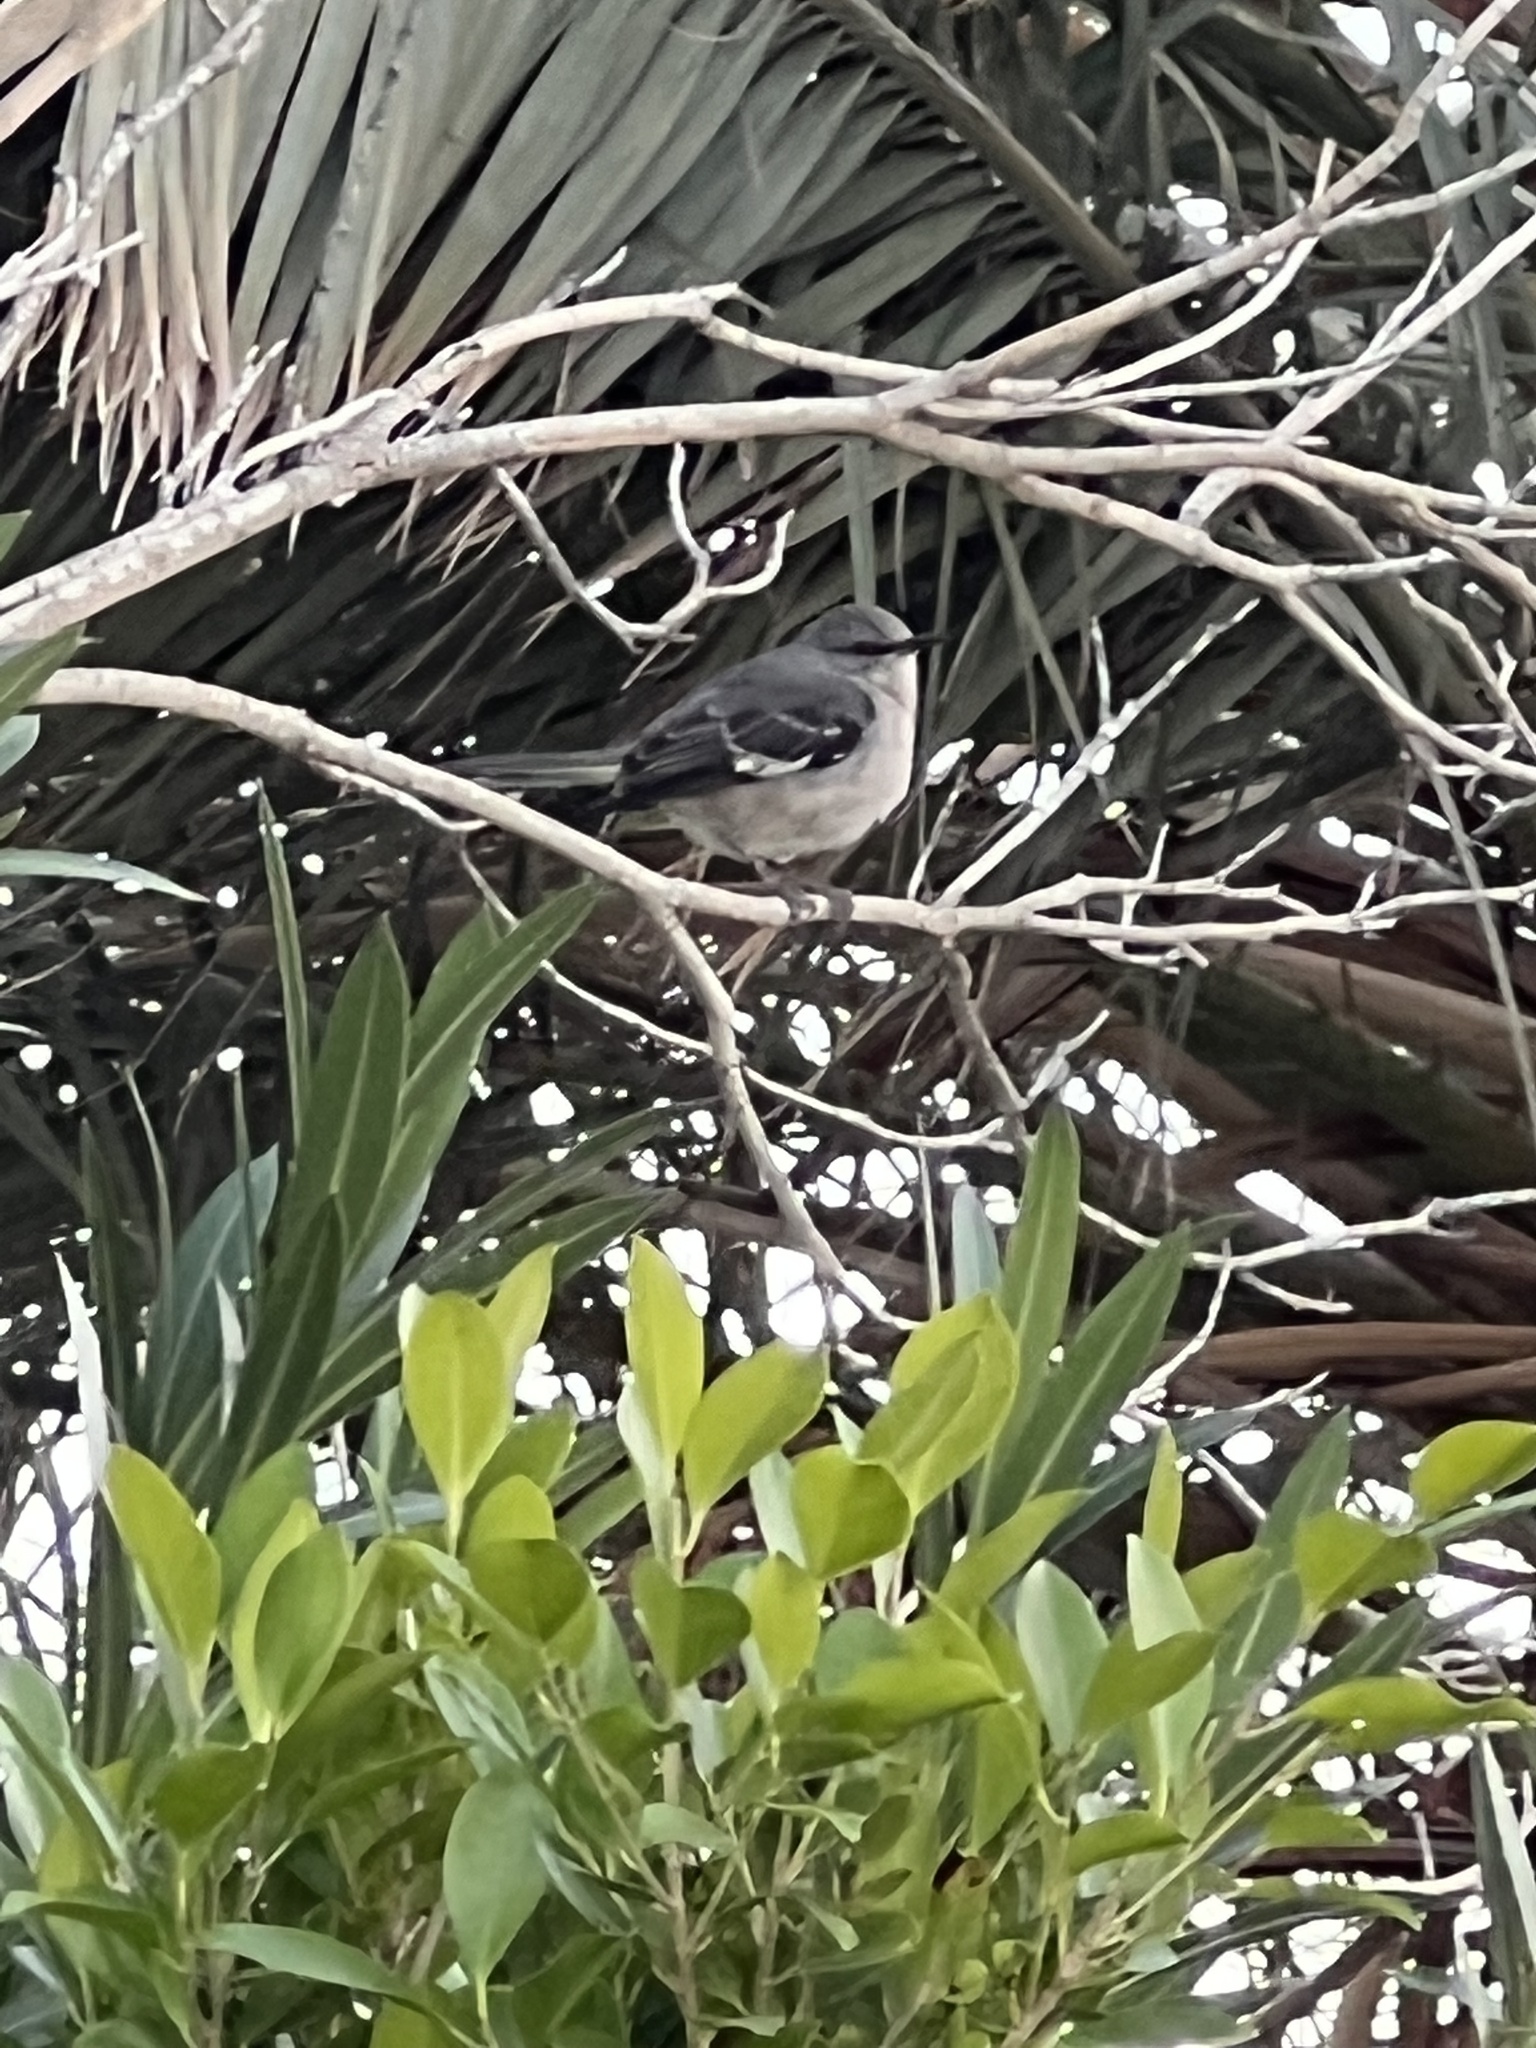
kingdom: Animalia
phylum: Chordata
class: Aves
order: Passeriformes
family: Mimidae
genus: Mimus
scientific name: Mimus polyglottos
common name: Northern mockingbird
